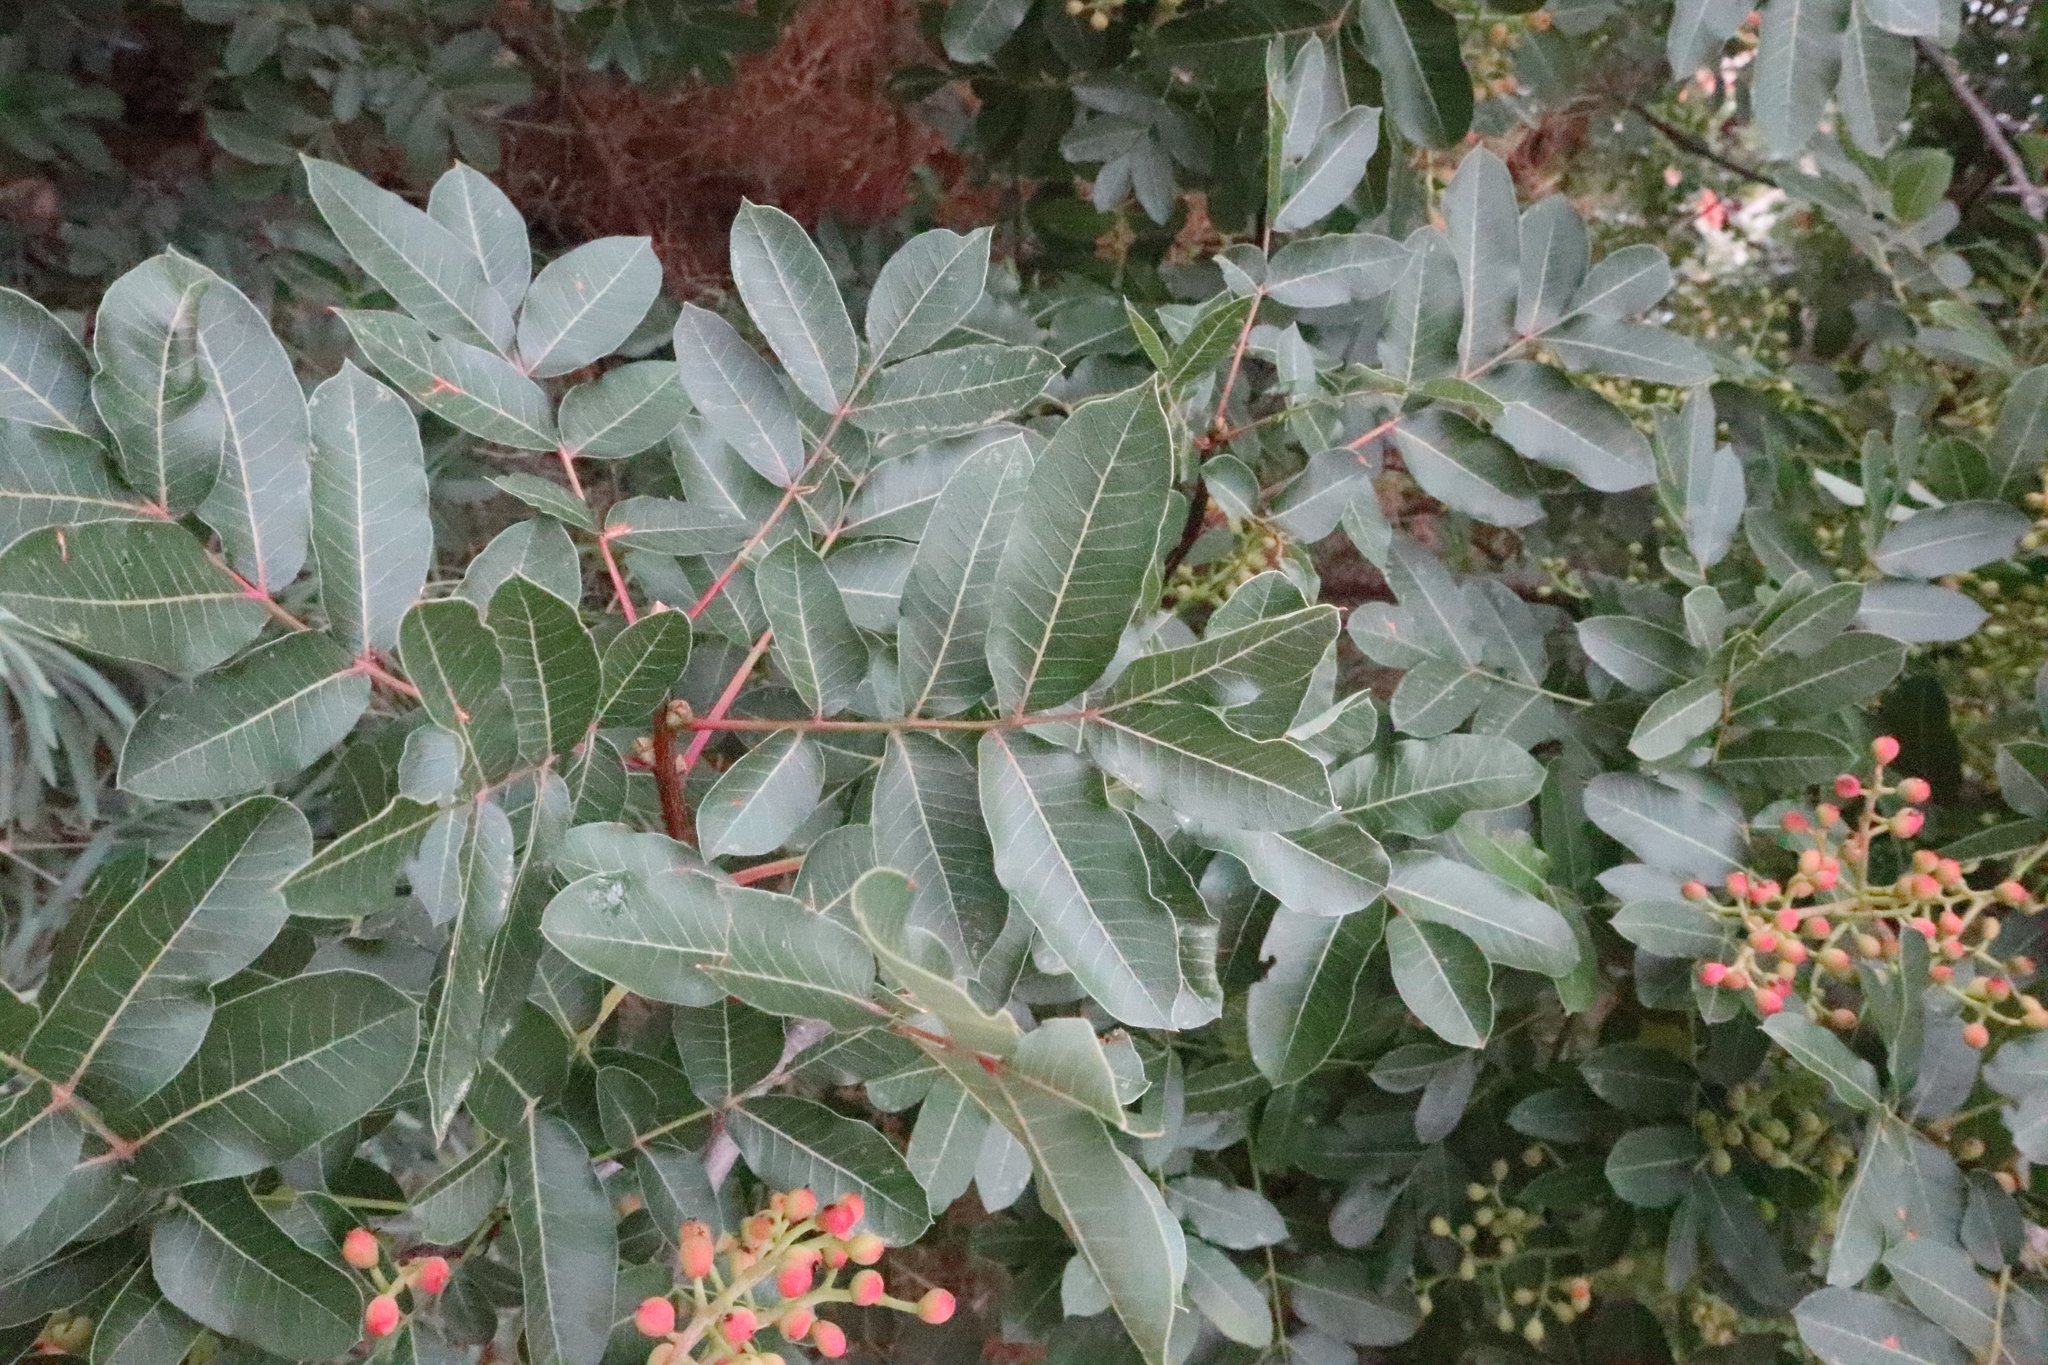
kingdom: Plantae
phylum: Tracheophyta
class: Magnoliopsida
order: Sapindales
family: Anacardiaceae
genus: Pistacia
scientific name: Pistacia terebinthus
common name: Terebinth
